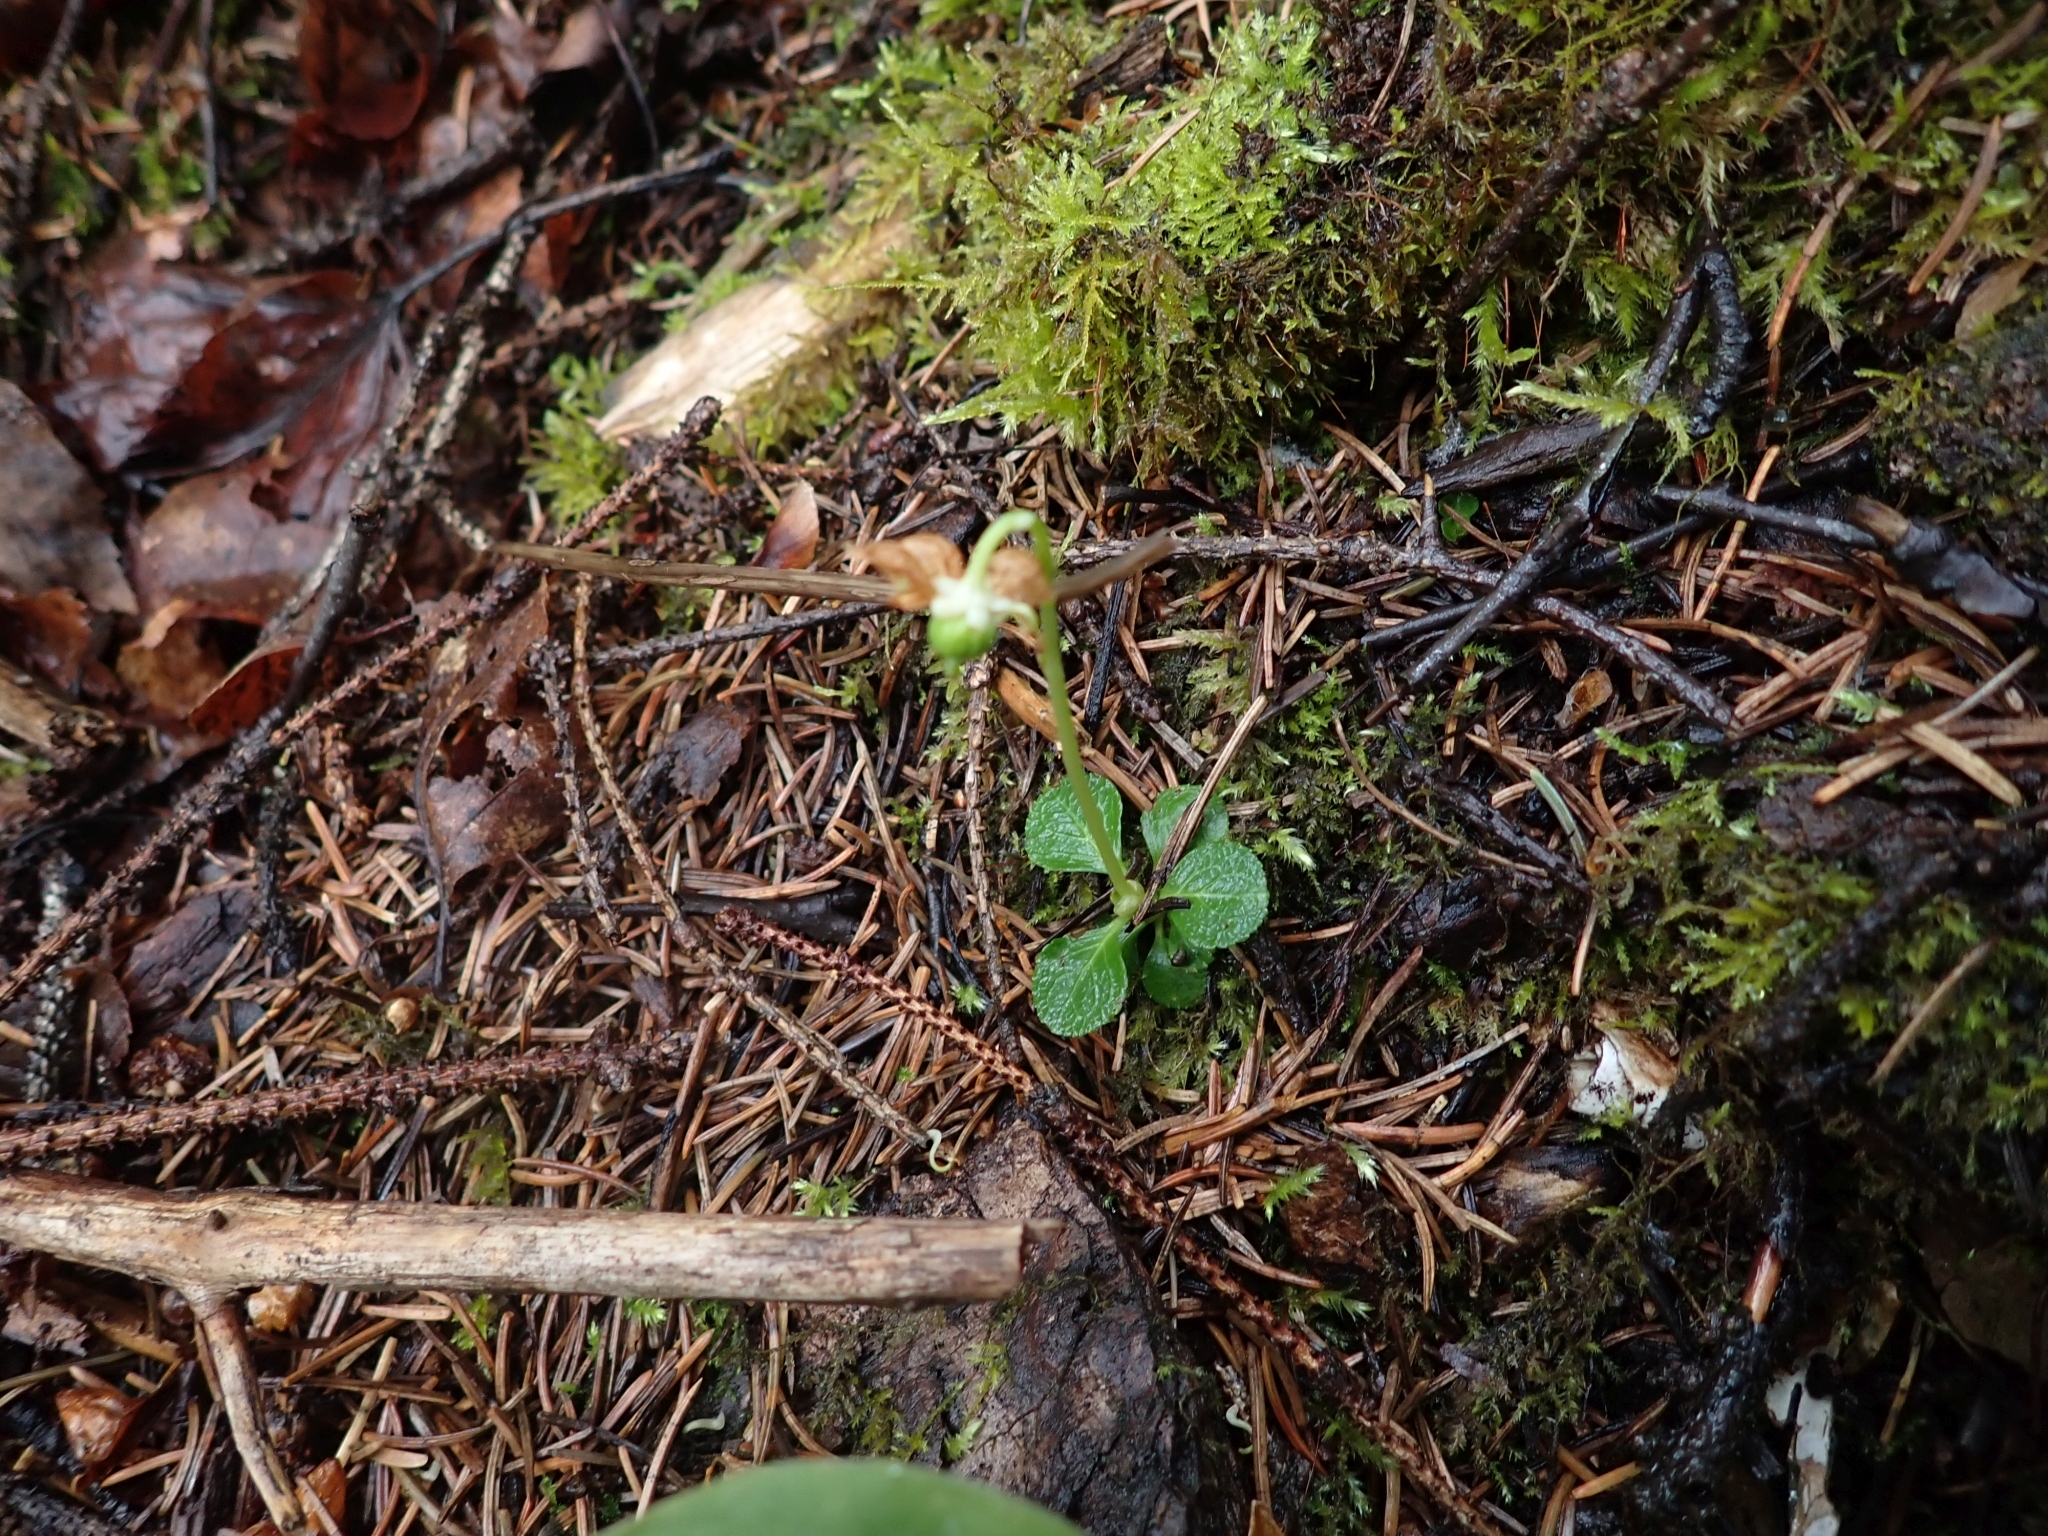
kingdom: Plantae
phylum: Tracheophyta
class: Magnoliopsida
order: Ericales
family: Ericaceae
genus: Moneses
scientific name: Moneses uniflora
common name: One-flowered wintergreen
